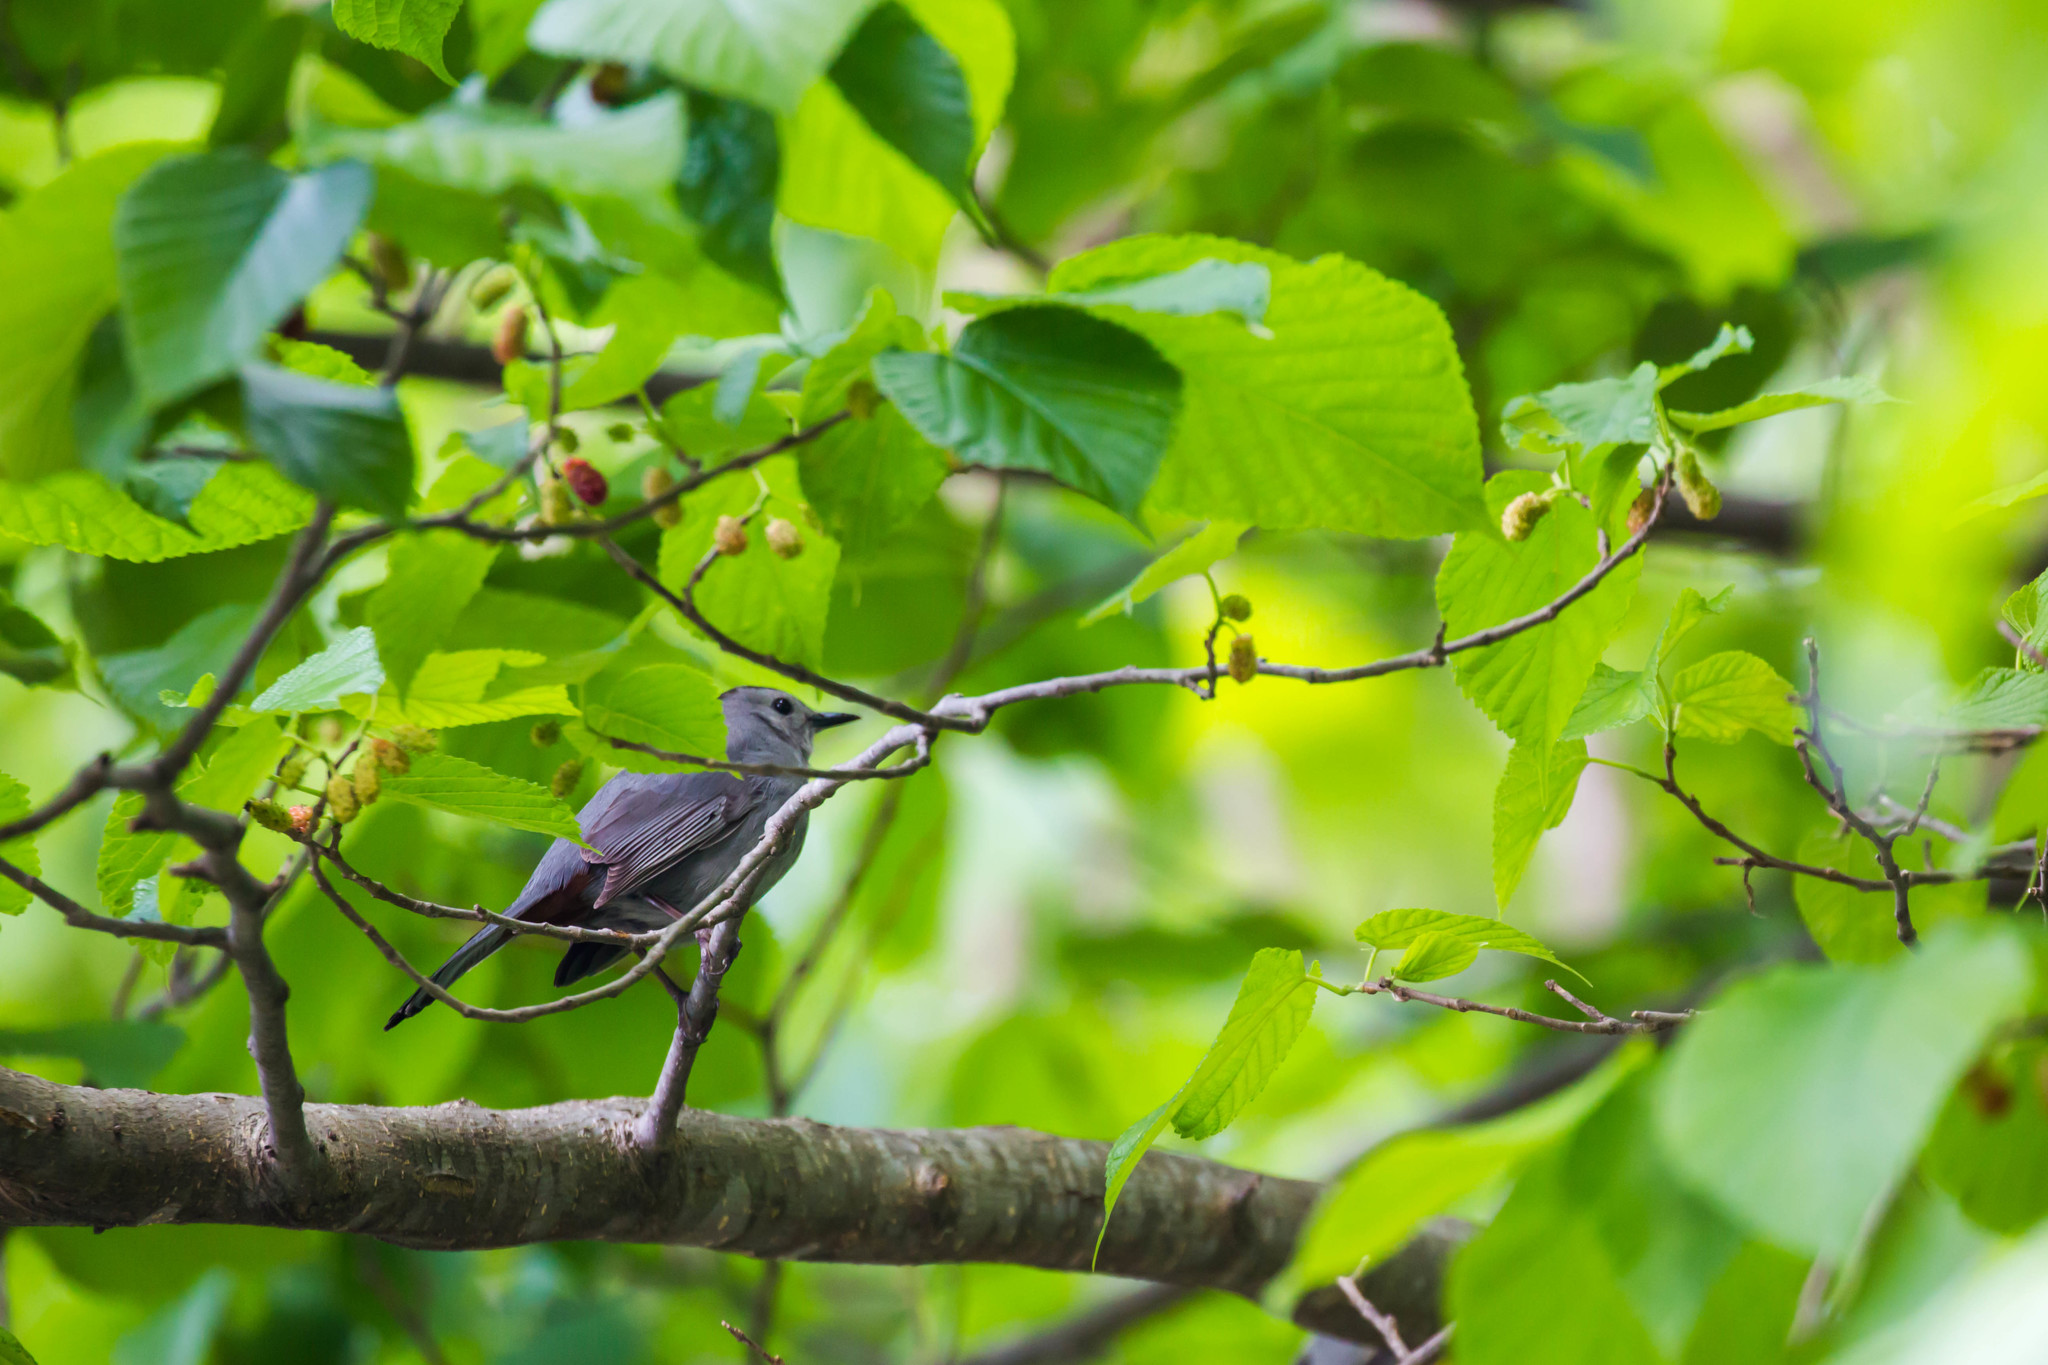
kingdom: Animalia
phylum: Chordata
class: Aves
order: Passeriformes
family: Mimidae
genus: Dumetella
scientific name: Dumetella carolinensis
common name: Gray catbird
